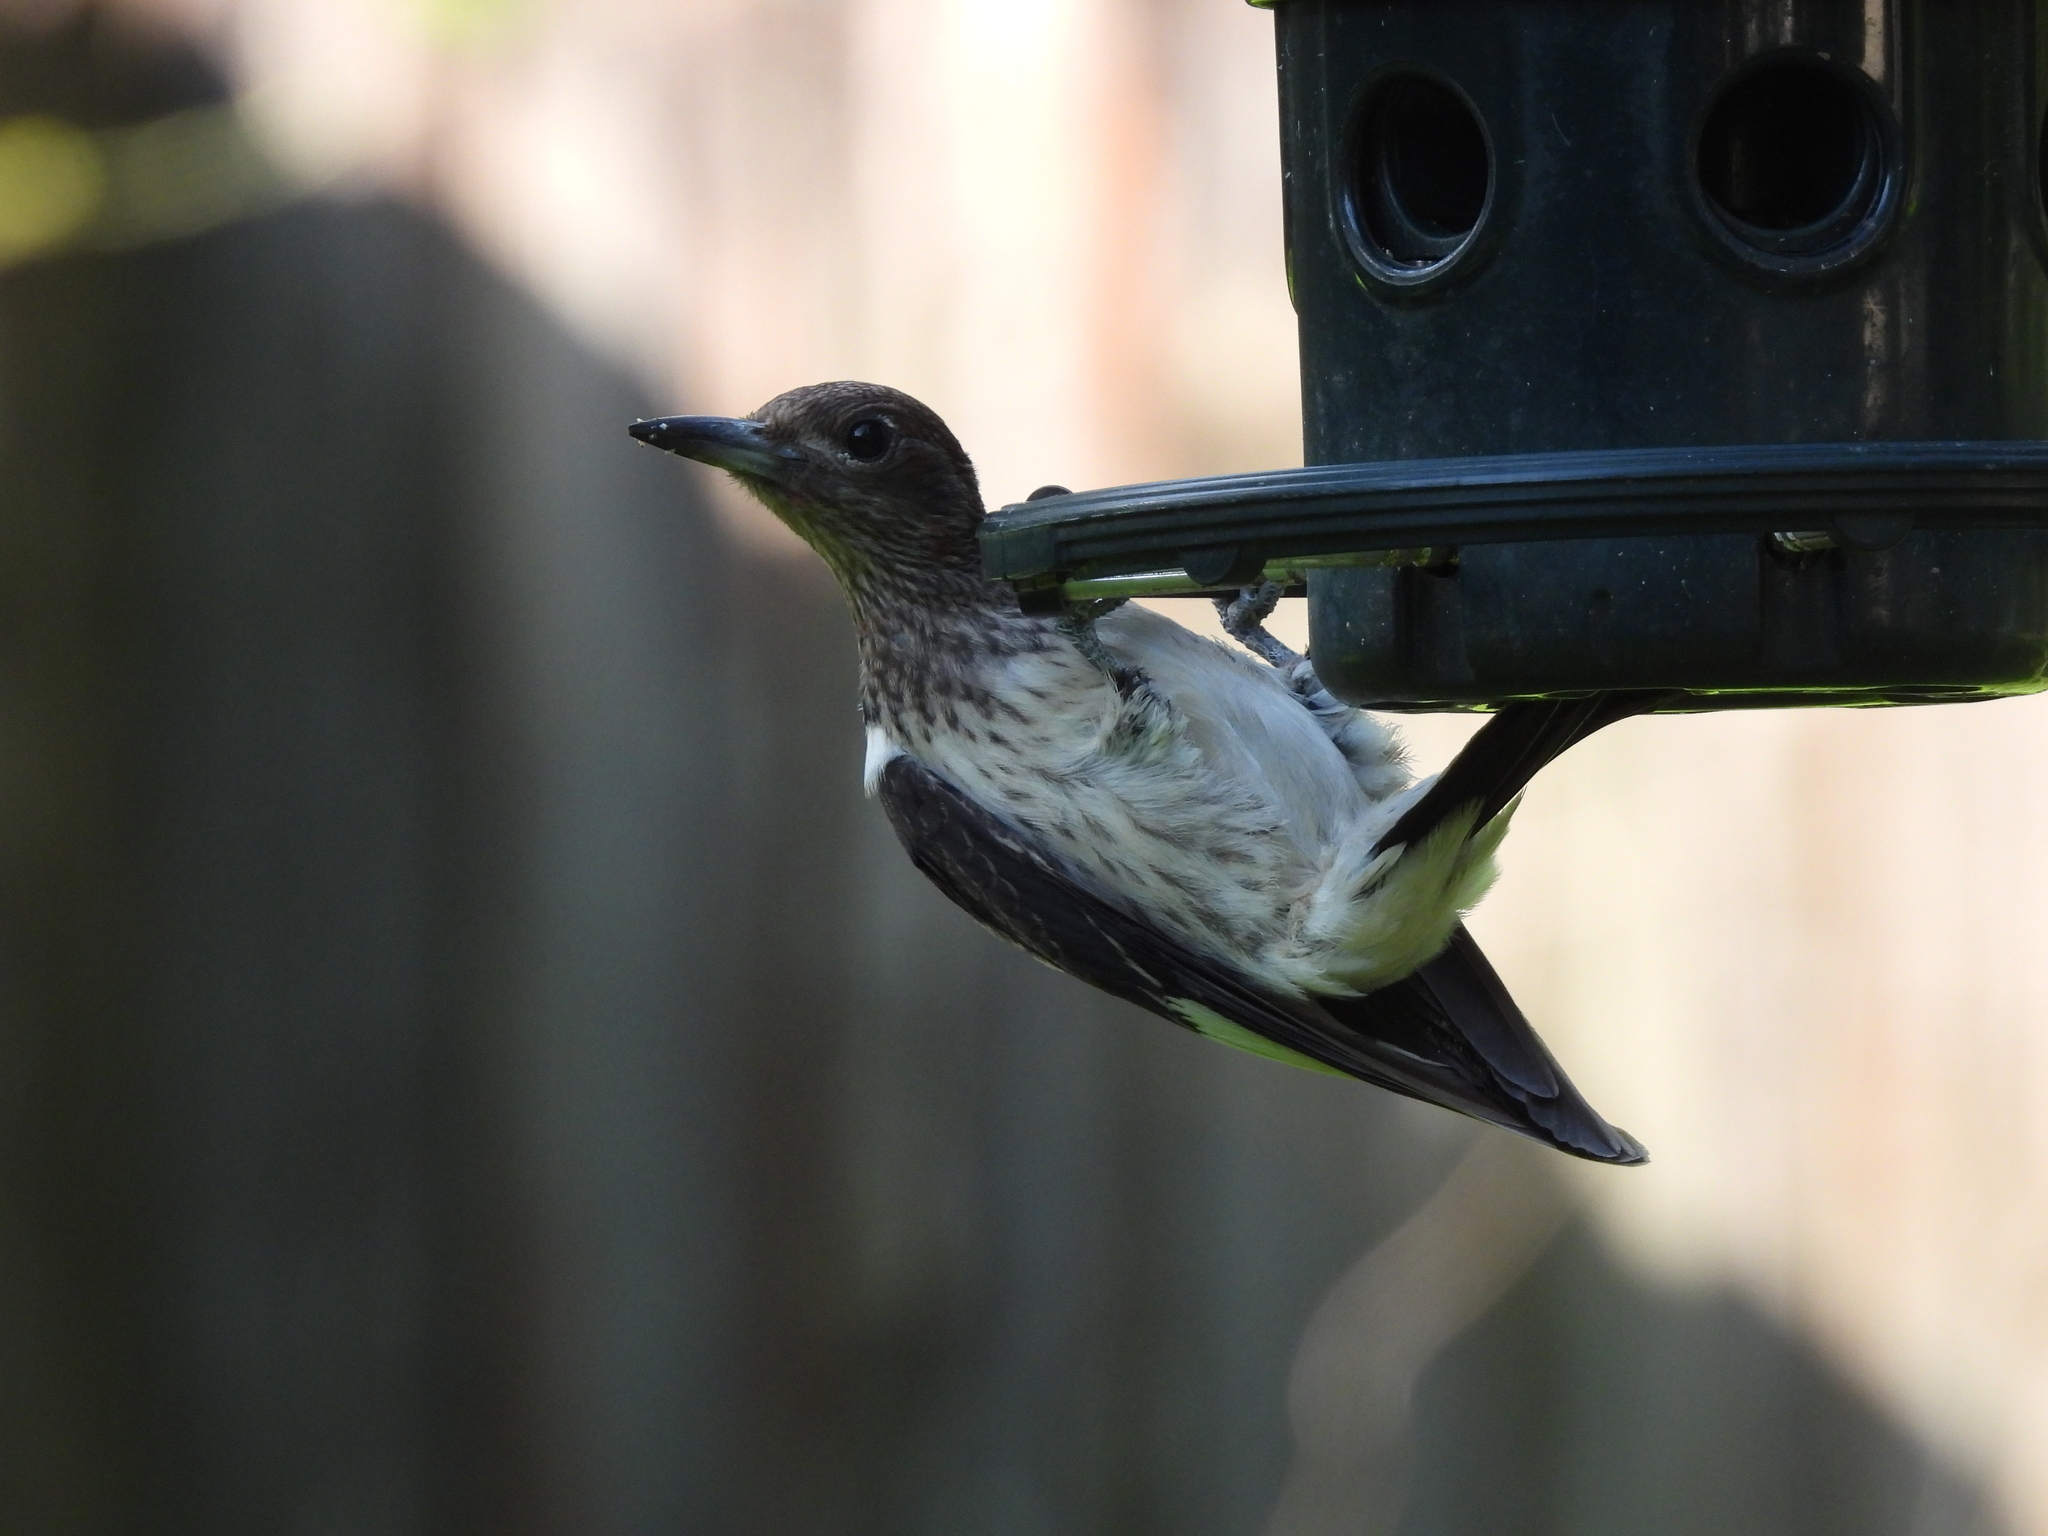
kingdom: Animalia
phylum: Chordata
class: Aves
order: Piciformes
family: Picidae
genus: Melanerpes
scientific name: Melanerpes erythrocephalus
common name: Red-headed woodpecker
